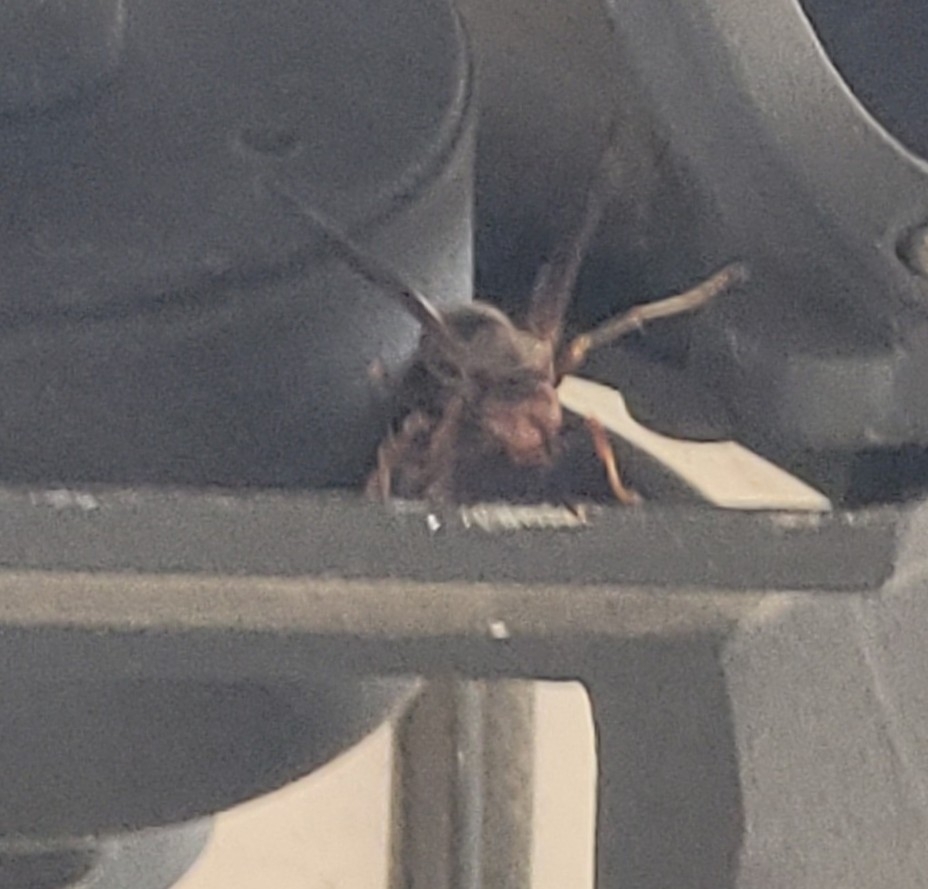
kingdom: Animalia
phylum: Arthropoda
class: Insecta
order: Hymenoptera
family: Vespidae
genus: Fuscopolistes
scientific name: Fuscopolistes
